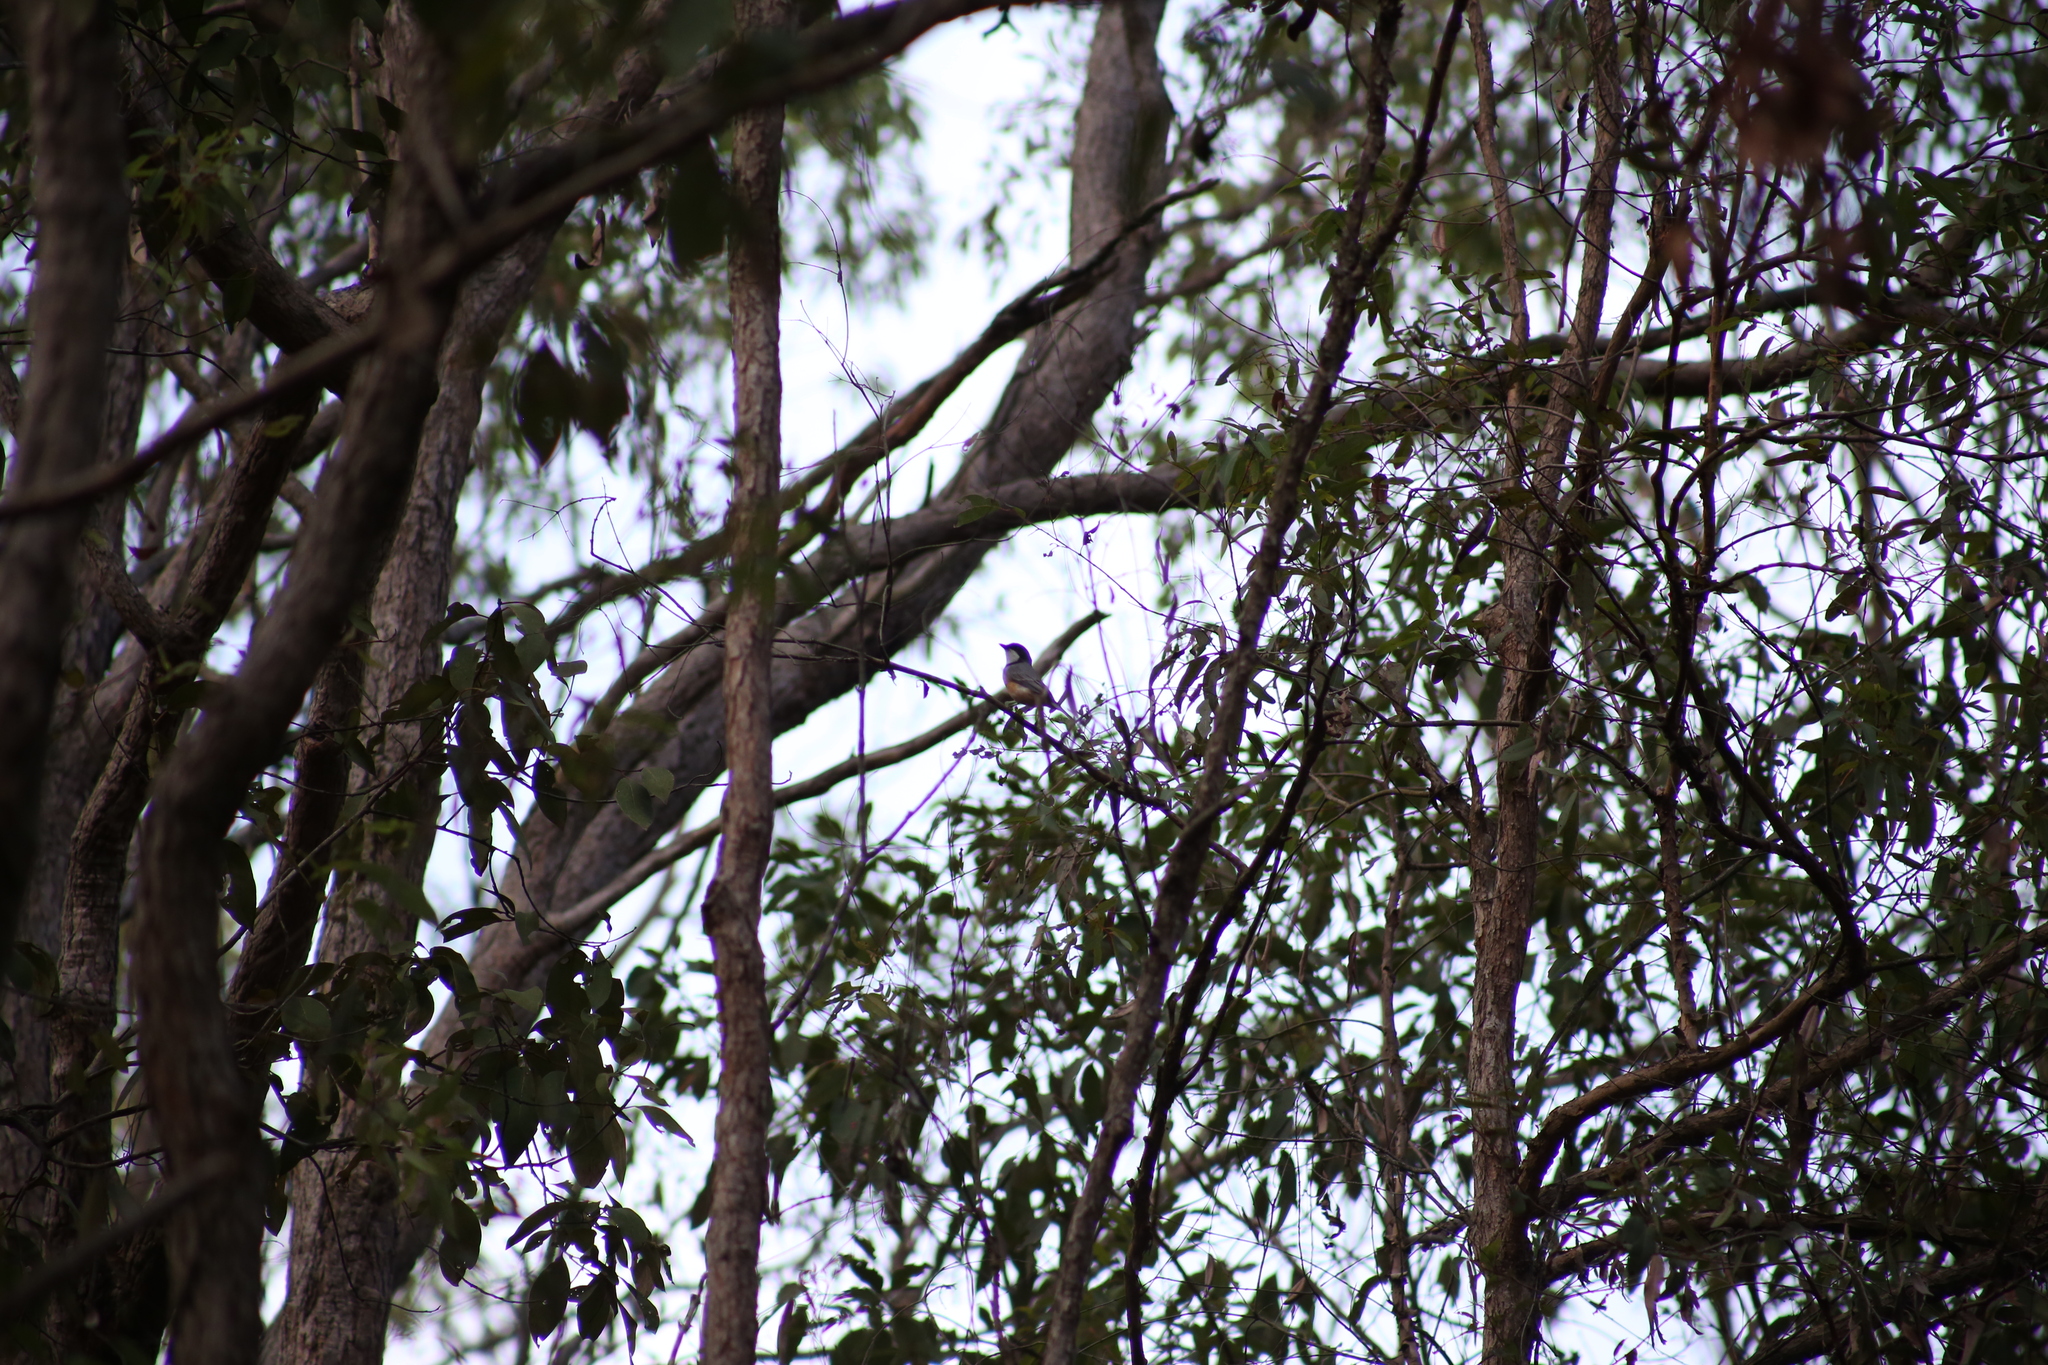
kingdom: Animalia
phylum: Chordata
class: Aves
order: Passeriformes
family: Pachycephalidae
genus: Pachycephala
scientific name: Pachycephala rufiventris
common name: Rufous whistler
